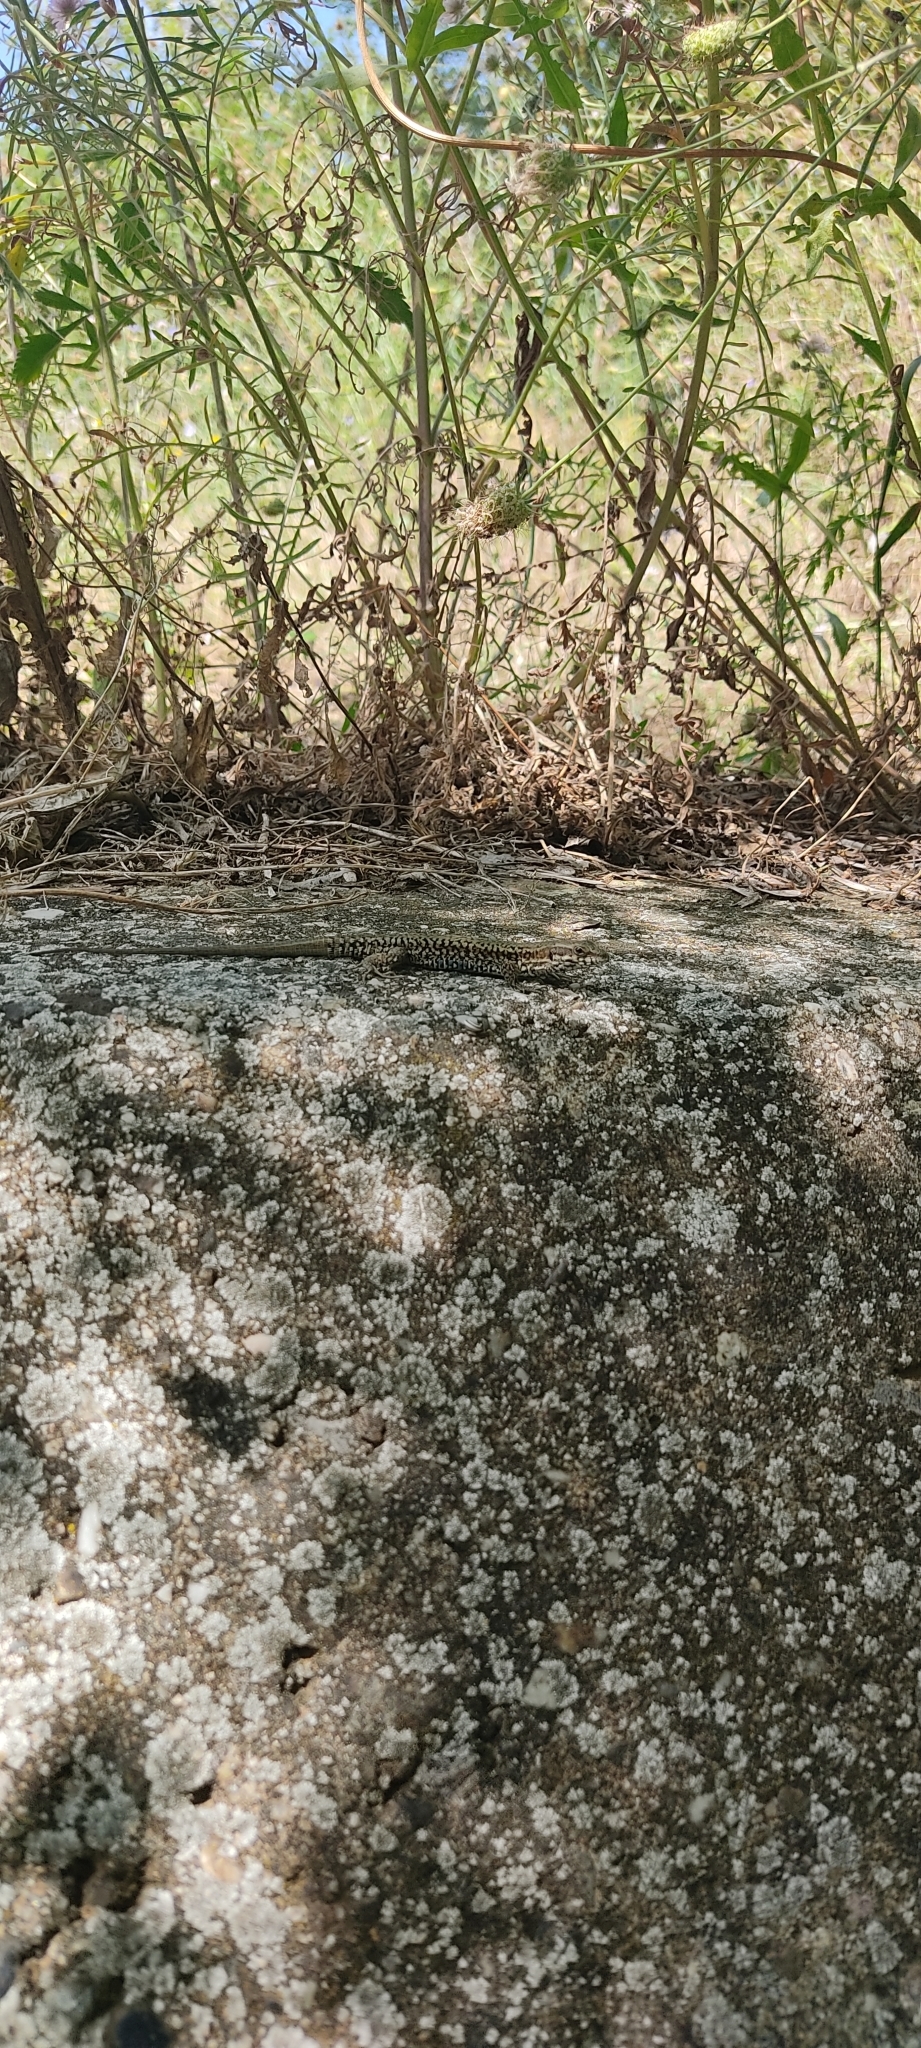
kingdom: Animalia
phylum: Chordata
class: Squamata
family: Lacertidae
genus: Podarcis
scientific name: Podarcis muralis
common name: Common wall lizard
